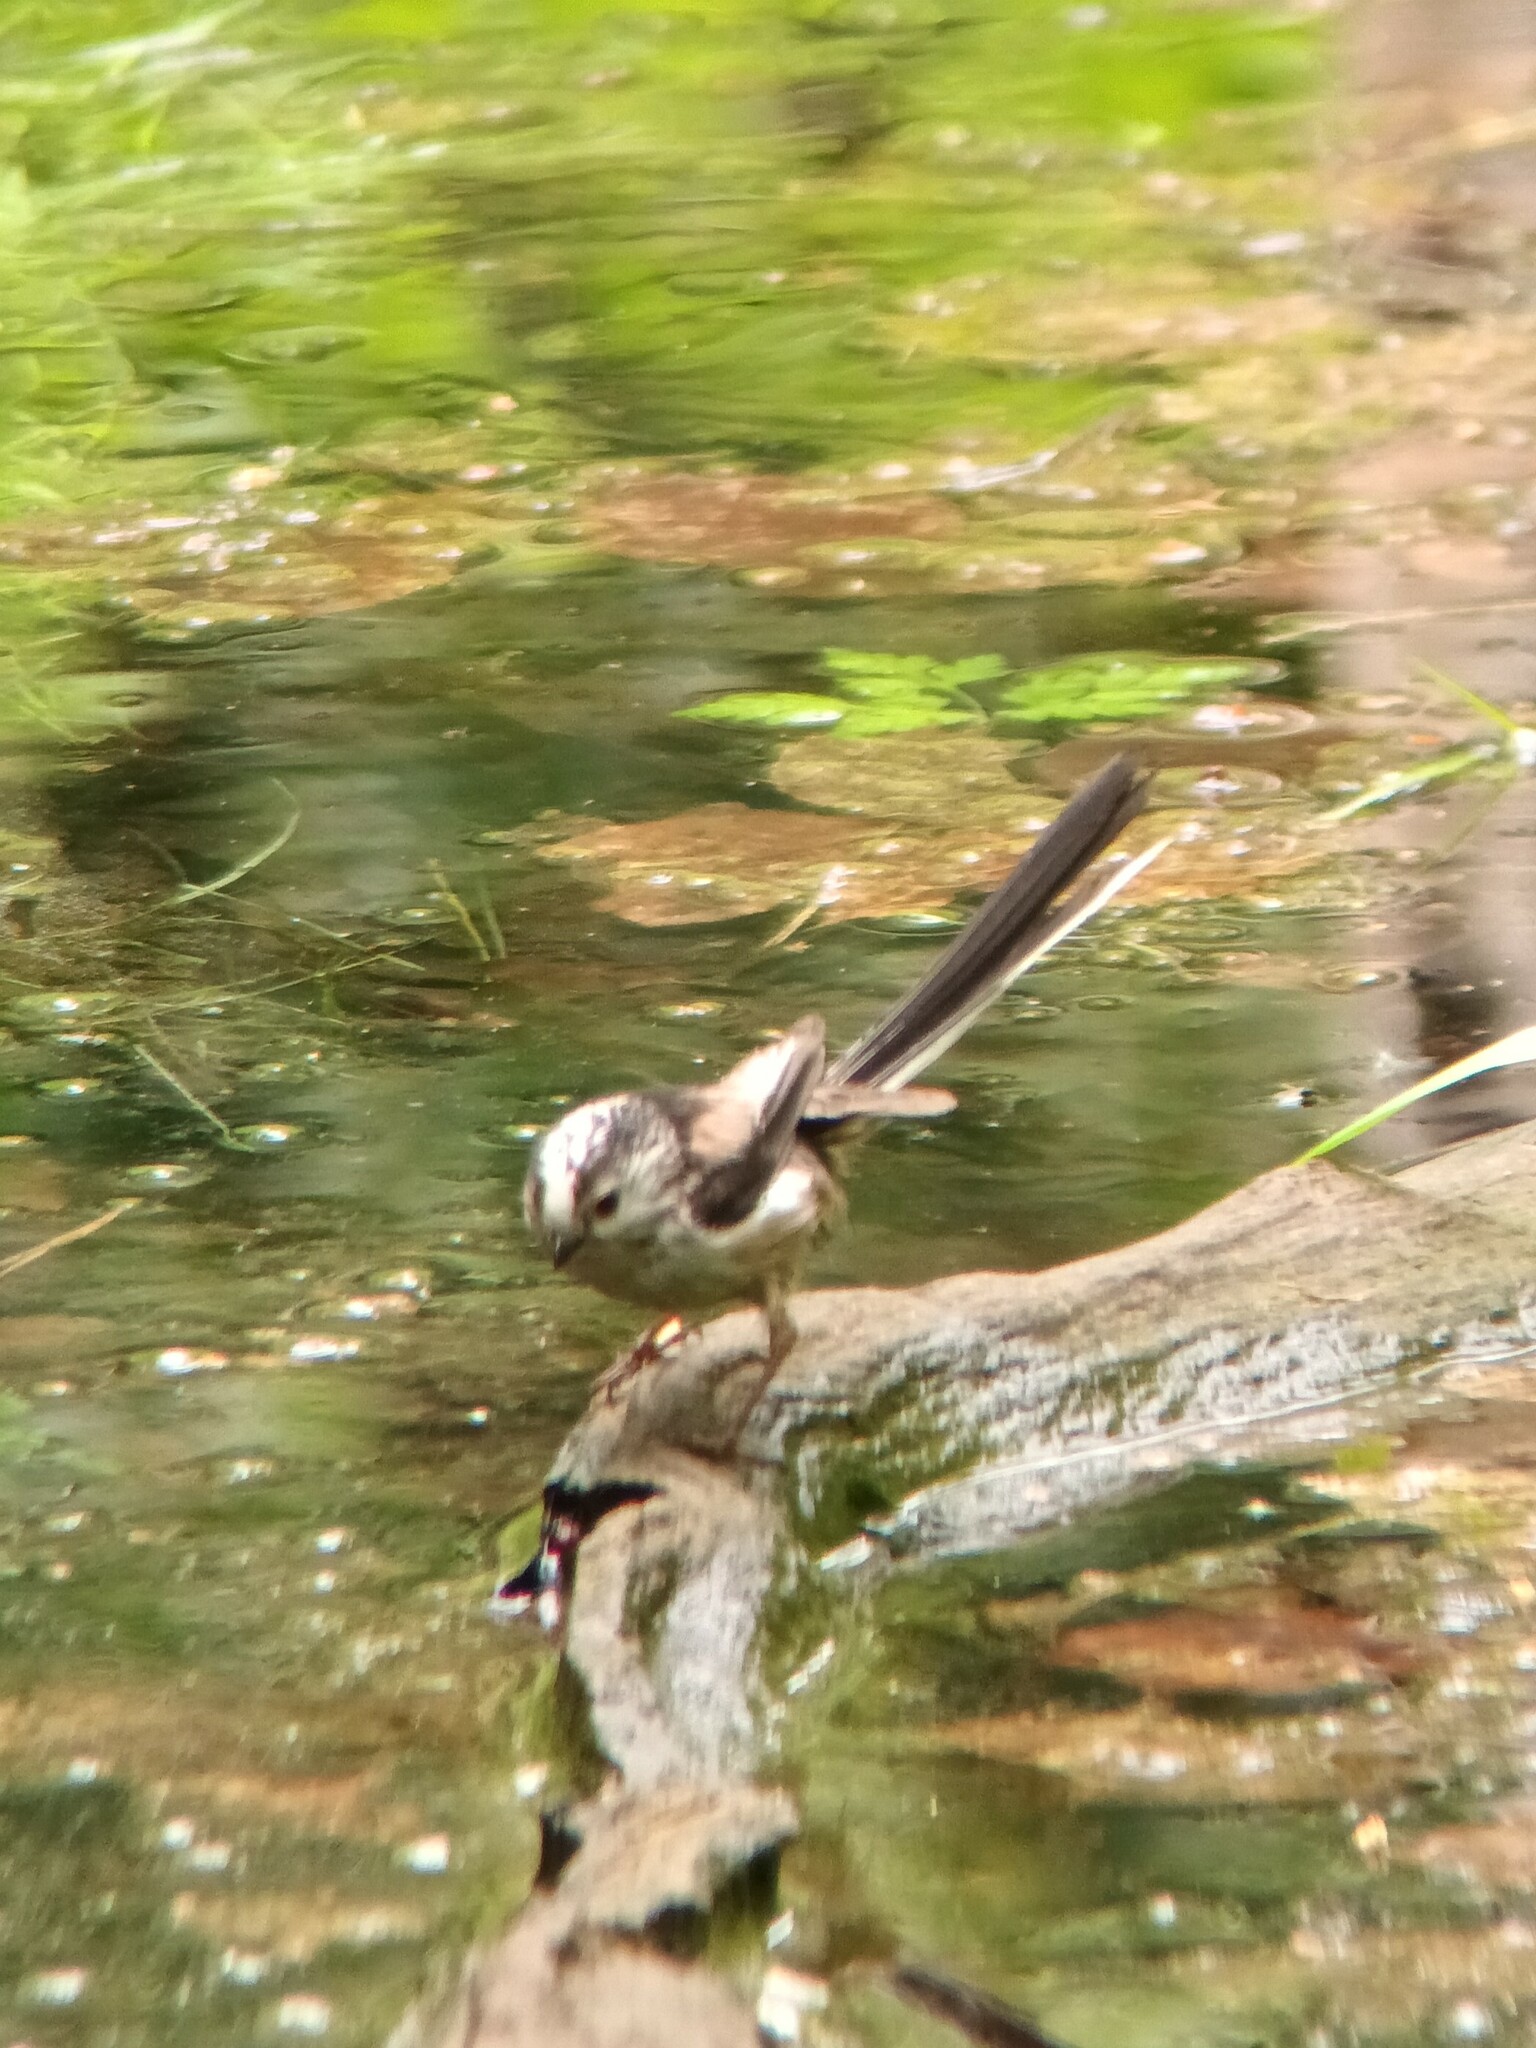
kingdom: Animalia
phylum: Chordata
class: Aves
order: Passeriformes
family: Aegithalidae
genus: Aegithalos
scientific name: Aegithalos caudatus
